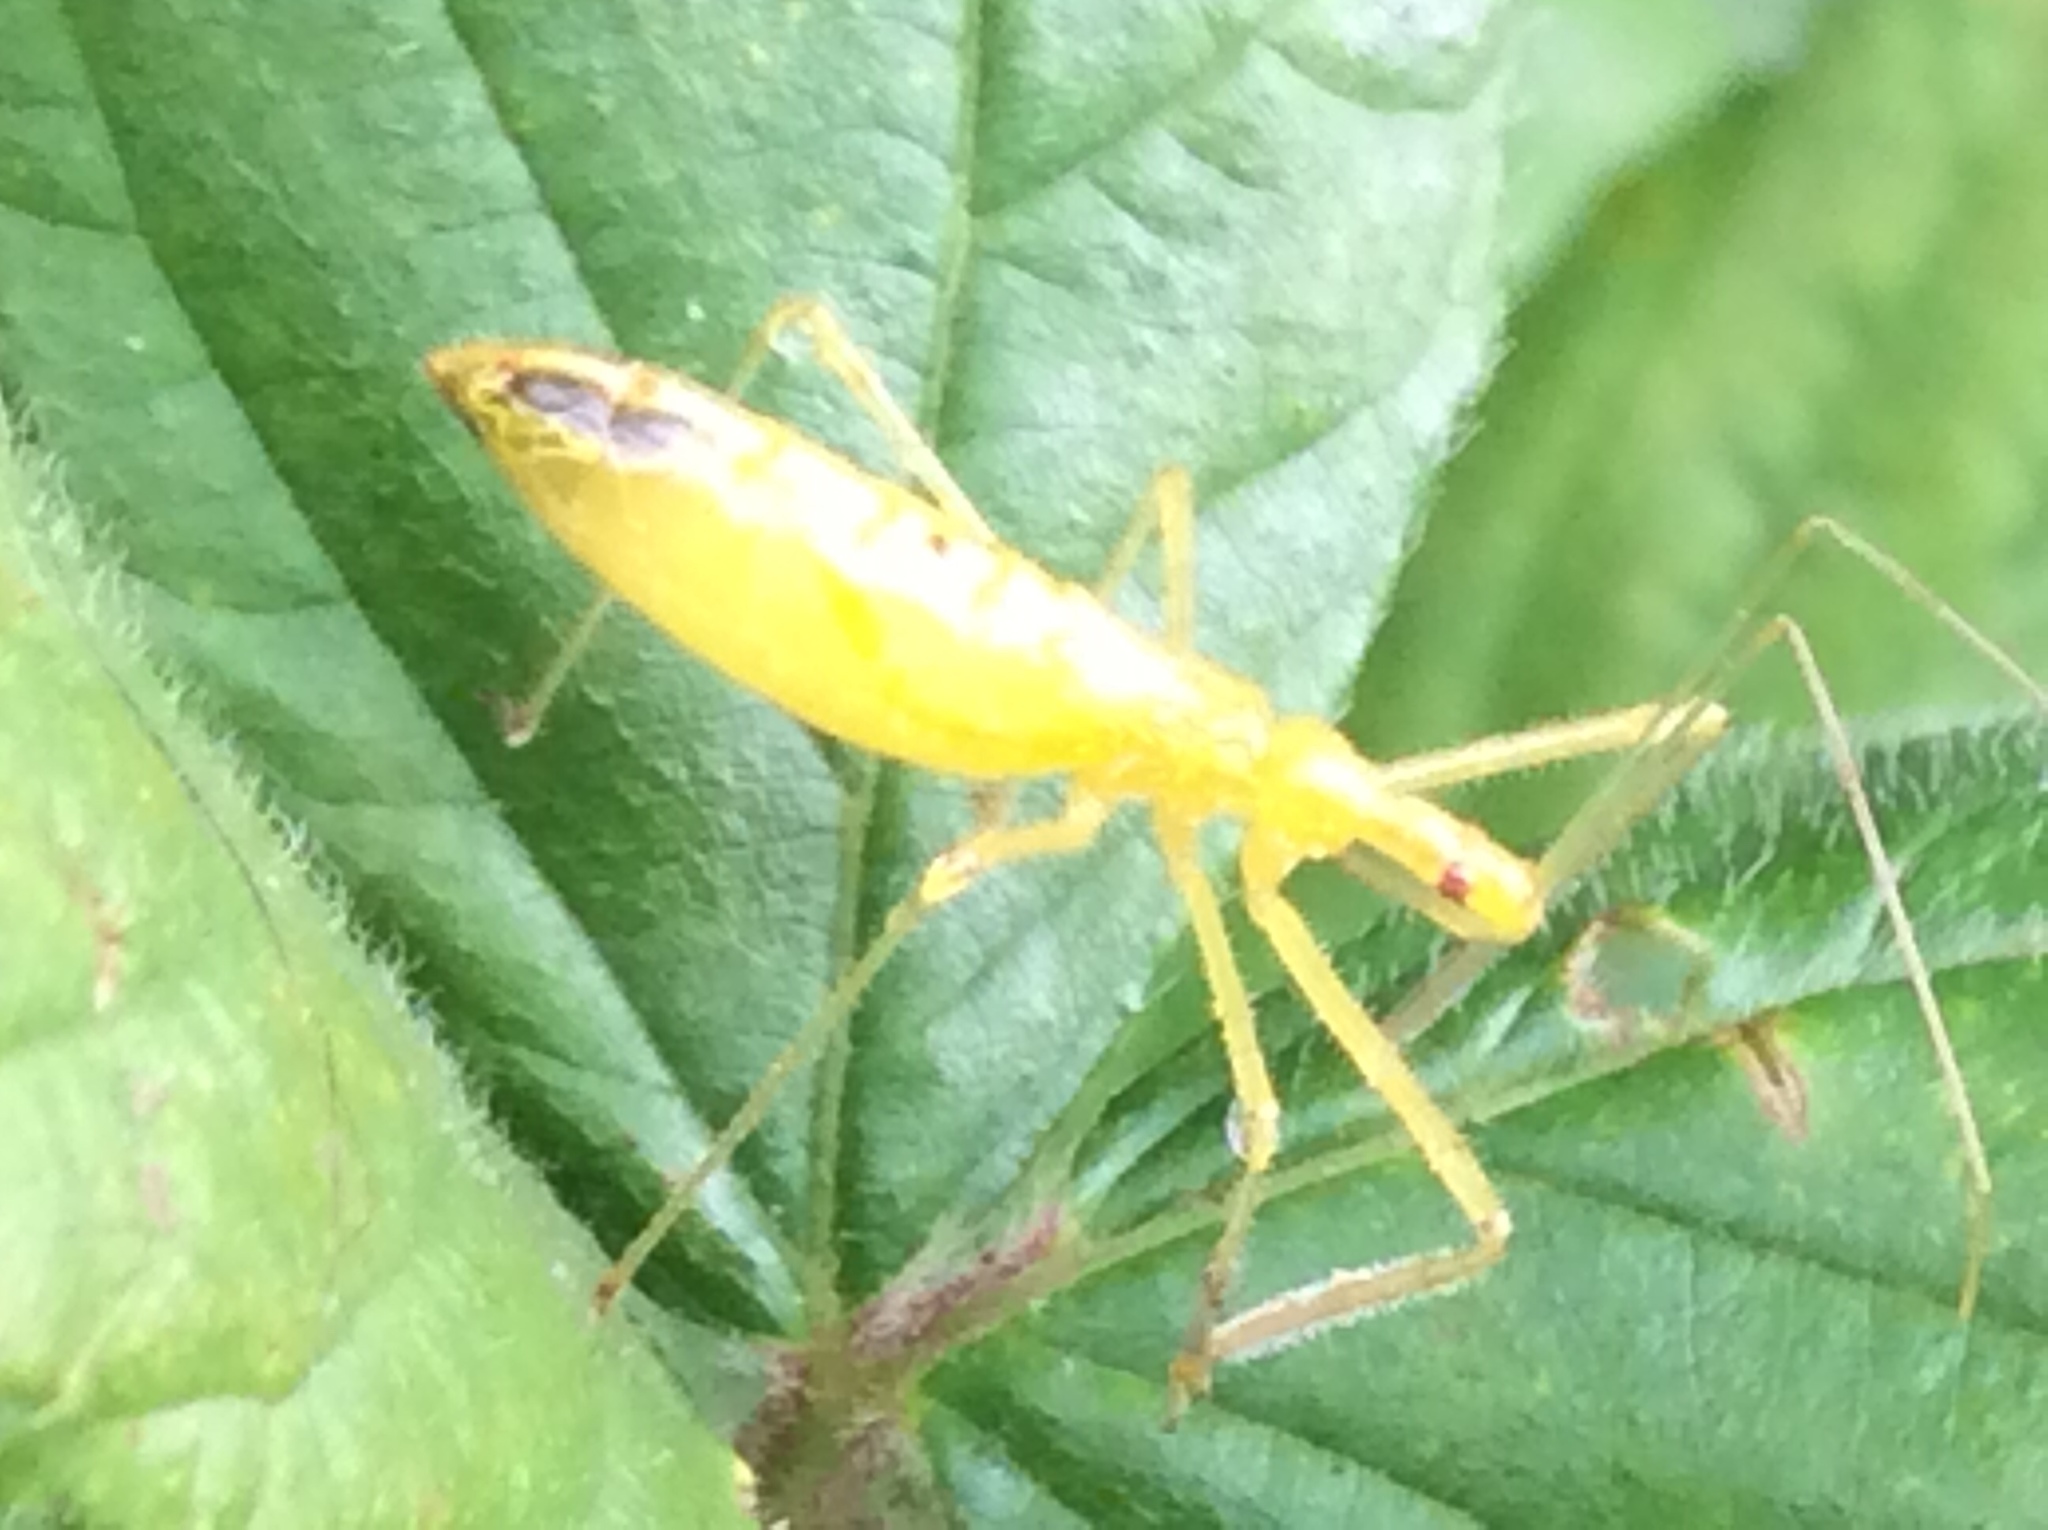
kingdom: Animalia
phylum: Arthropoda
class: Insecta
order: Hemiptera
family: Reduviidae
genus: Zelus
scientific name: Zelus luridus
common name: Pale green assassin bug
